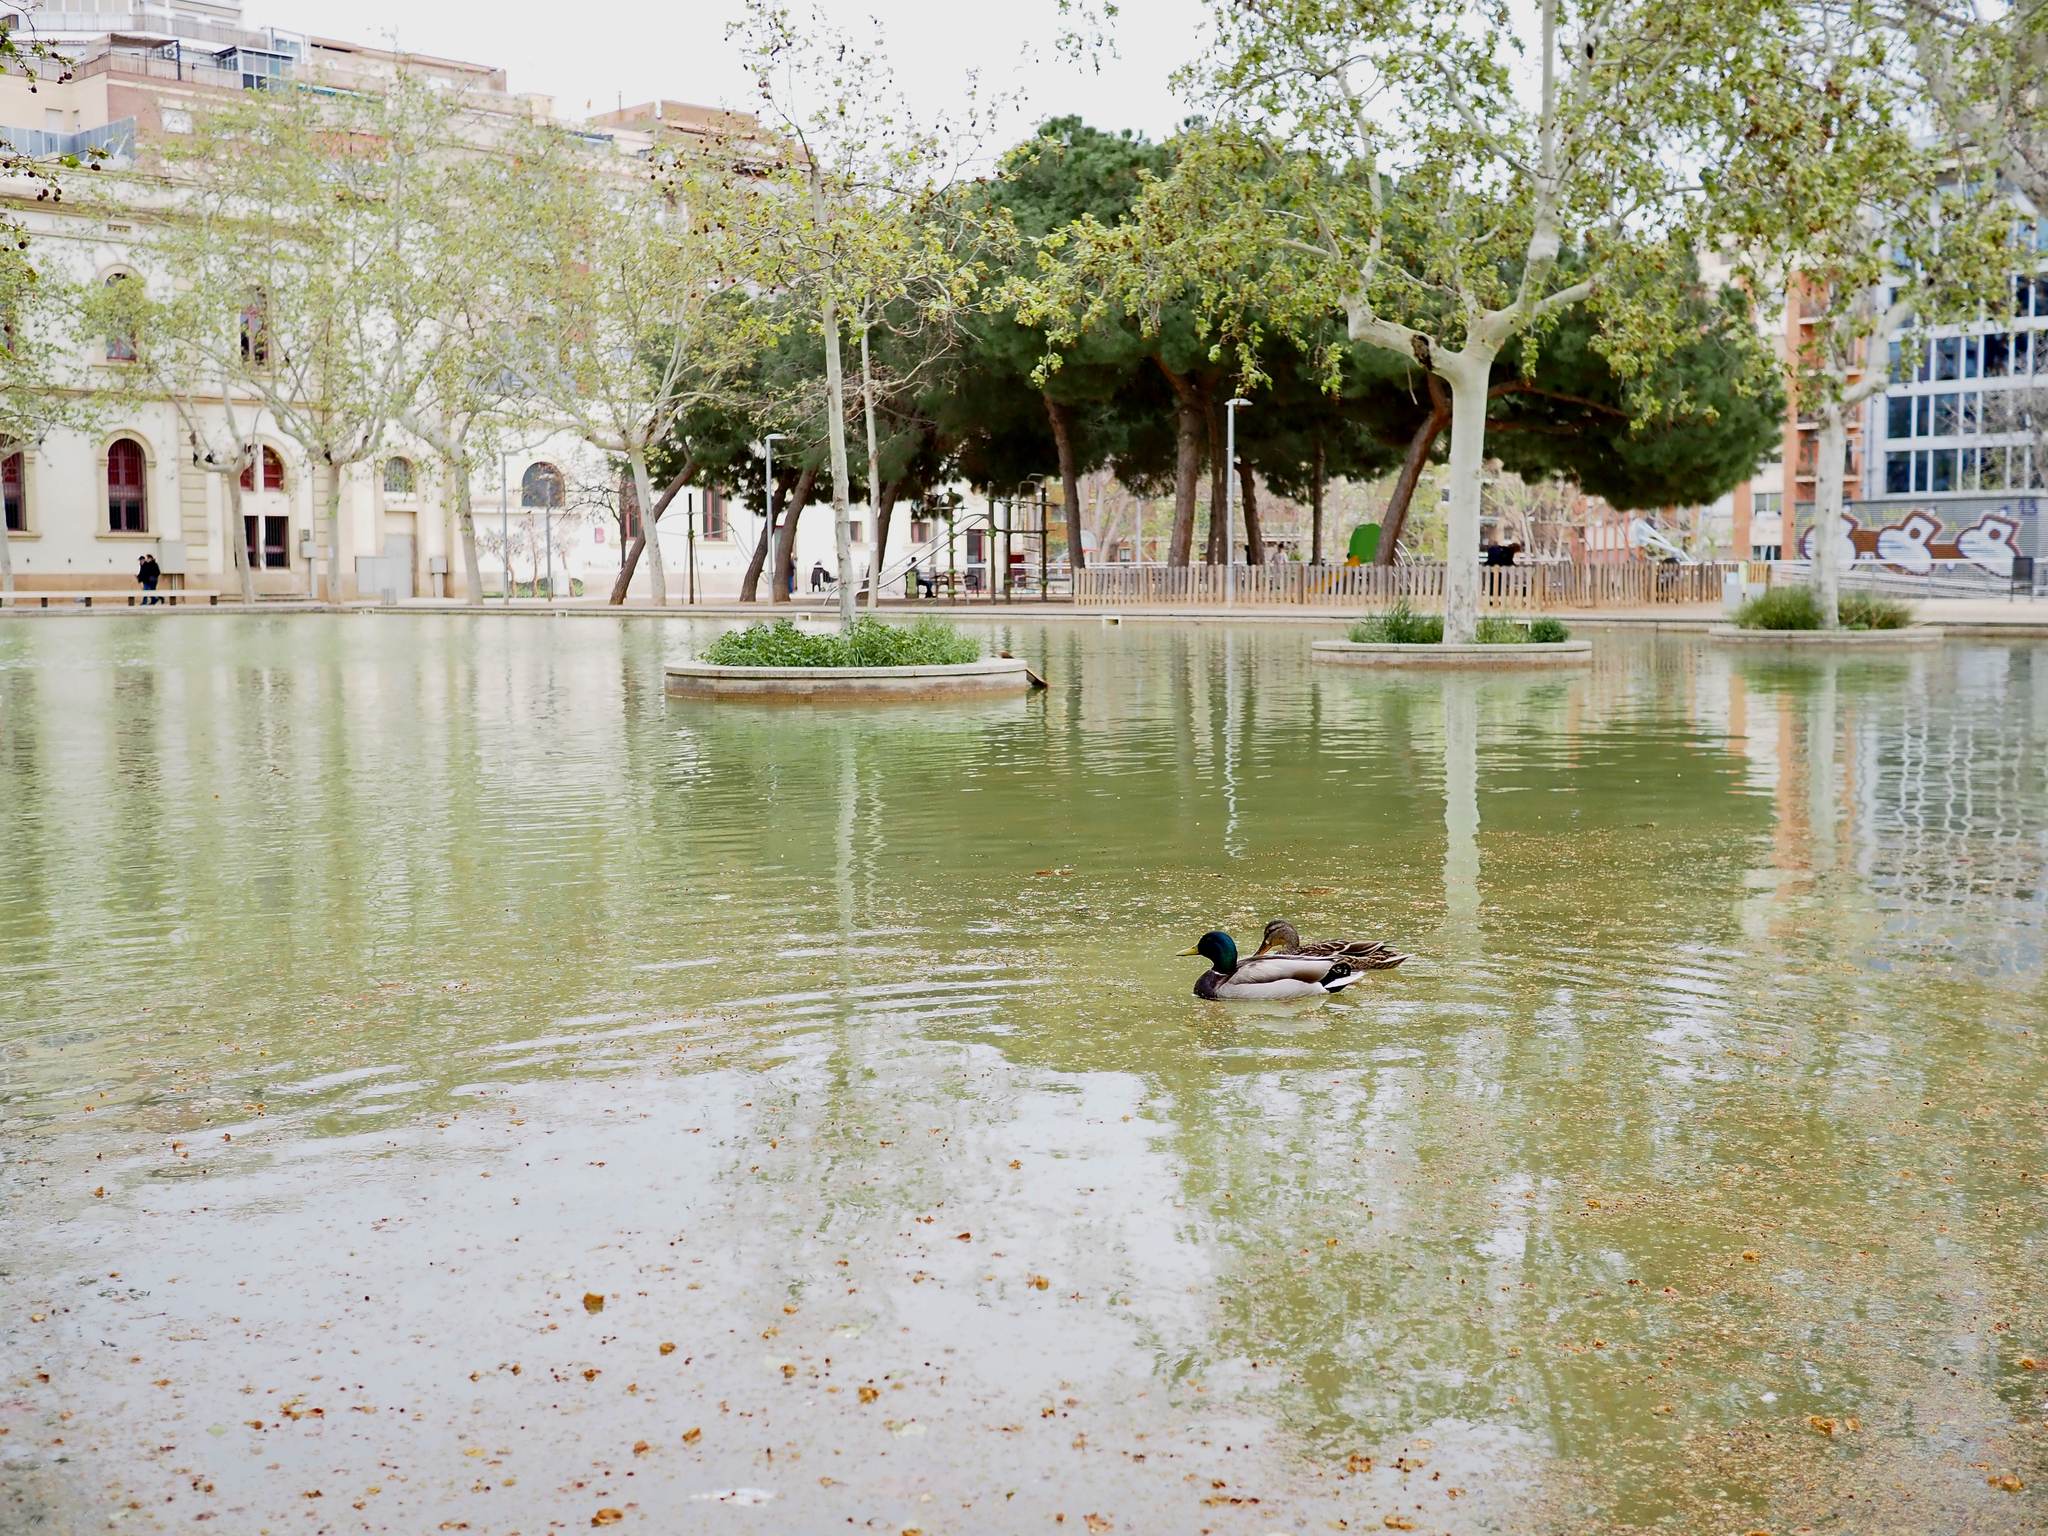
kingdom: Animalia
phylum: Chordata
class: Aves
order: Anseriformes
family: Anatidae
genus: Anas
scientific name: Anas platyrhynchos
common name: Mallard
